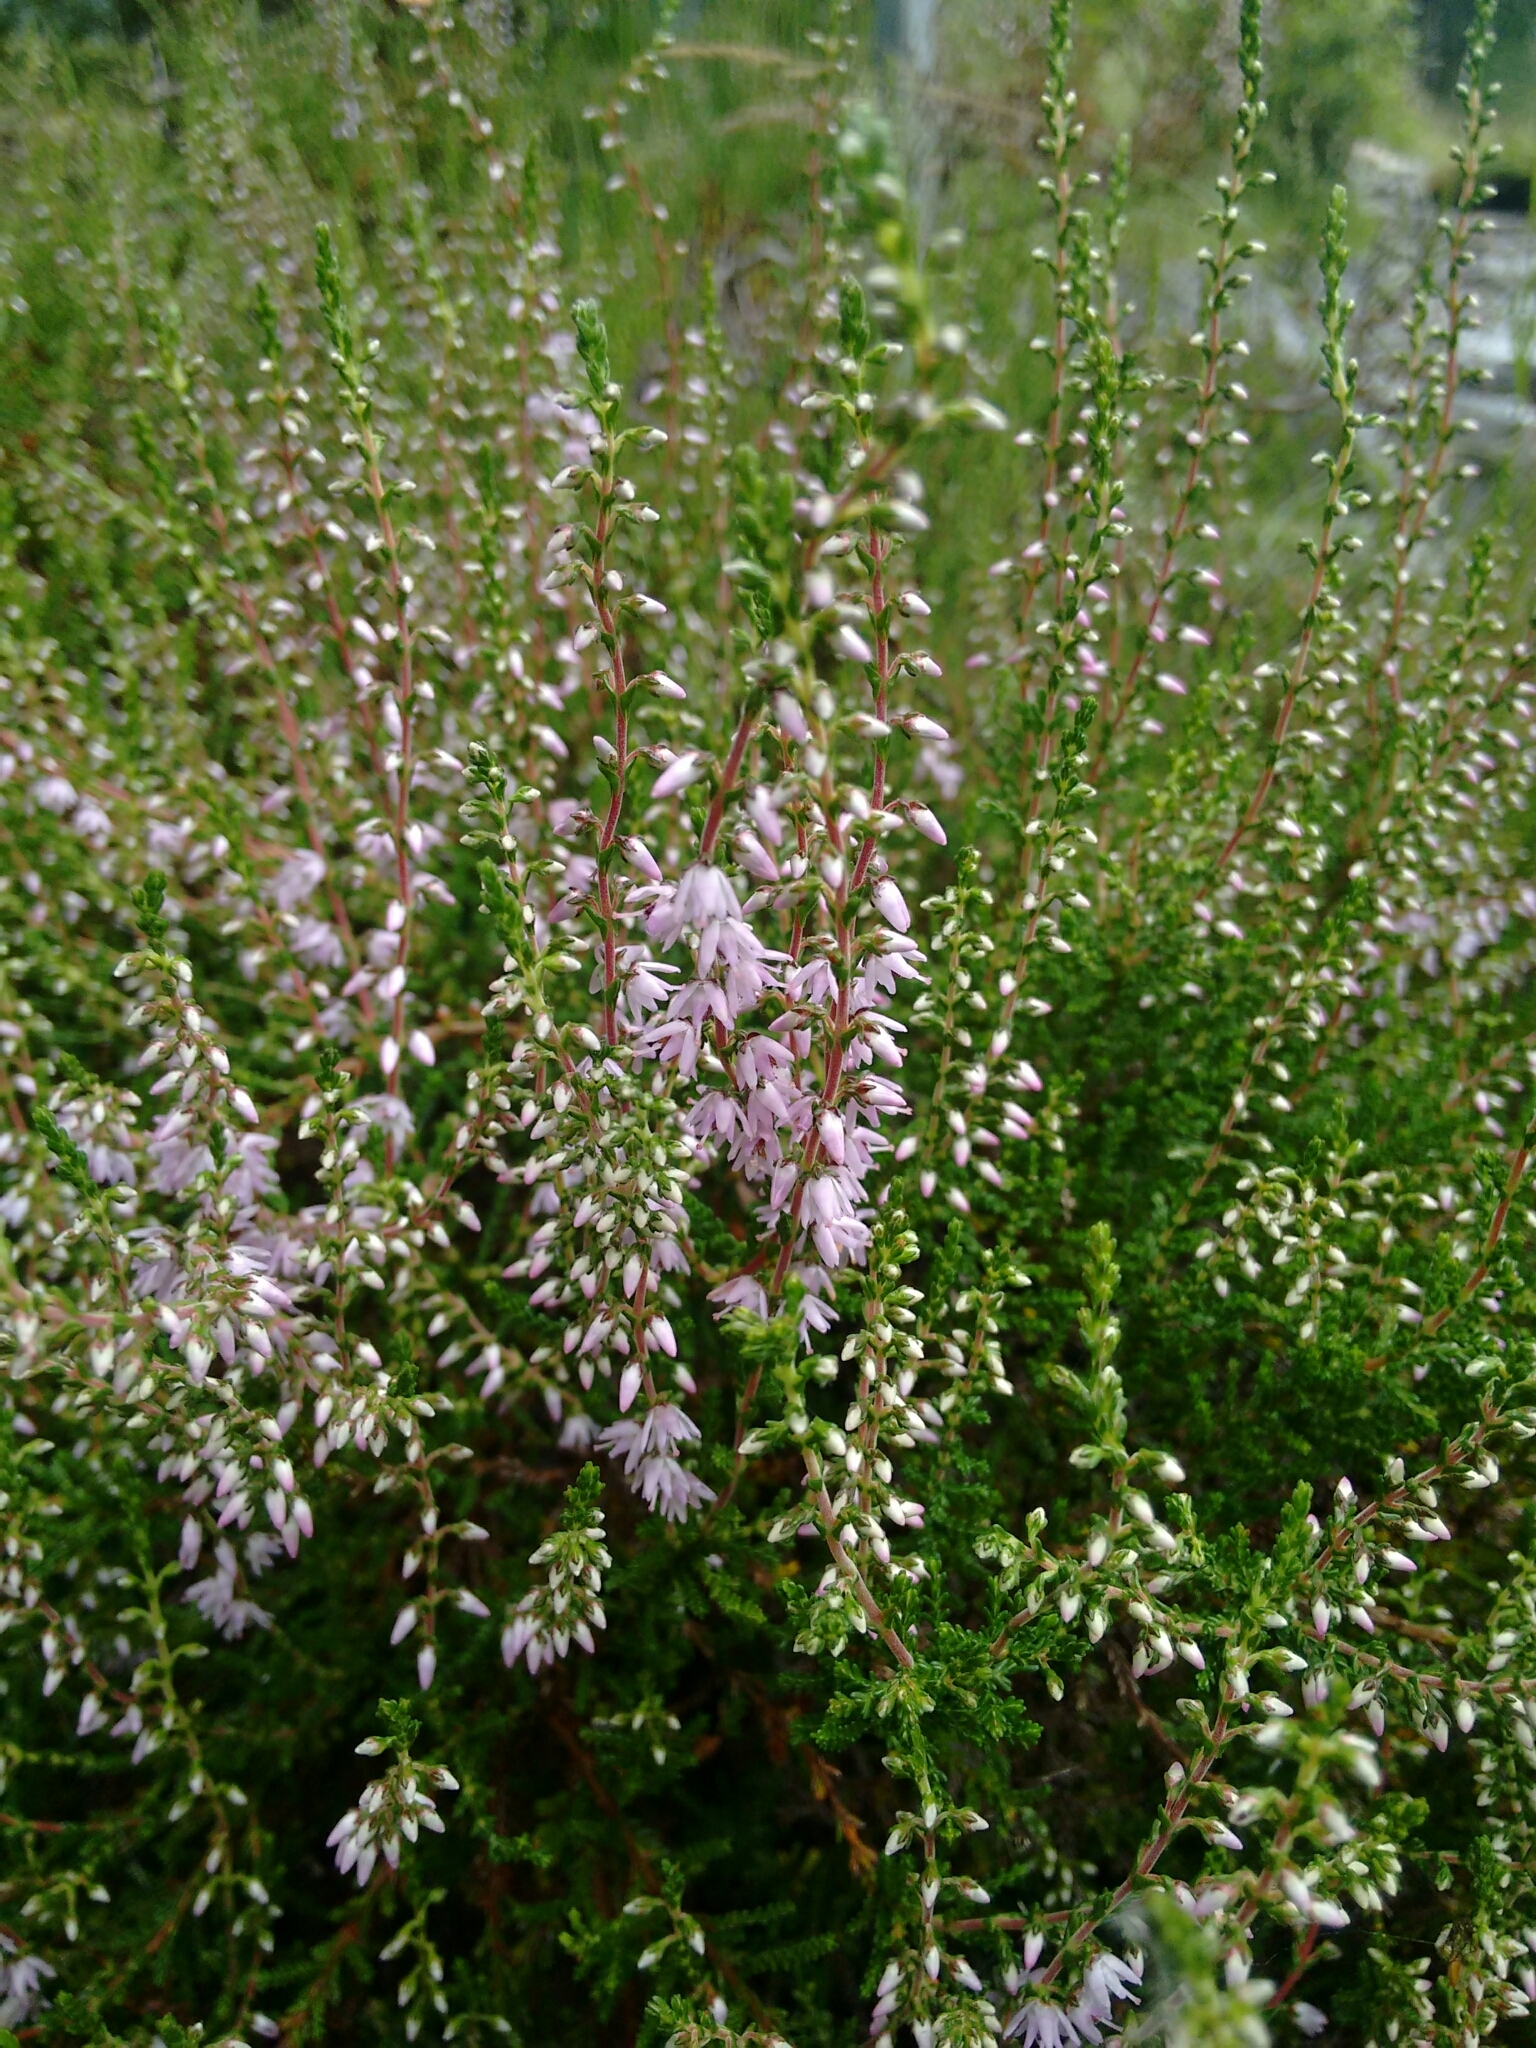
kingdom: Plantae
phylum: Tracheophyta
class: Magnoliopsida
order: Ericales
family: Ericaceae
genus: Calluna
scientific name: Calluna vulgaris
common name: Heather
